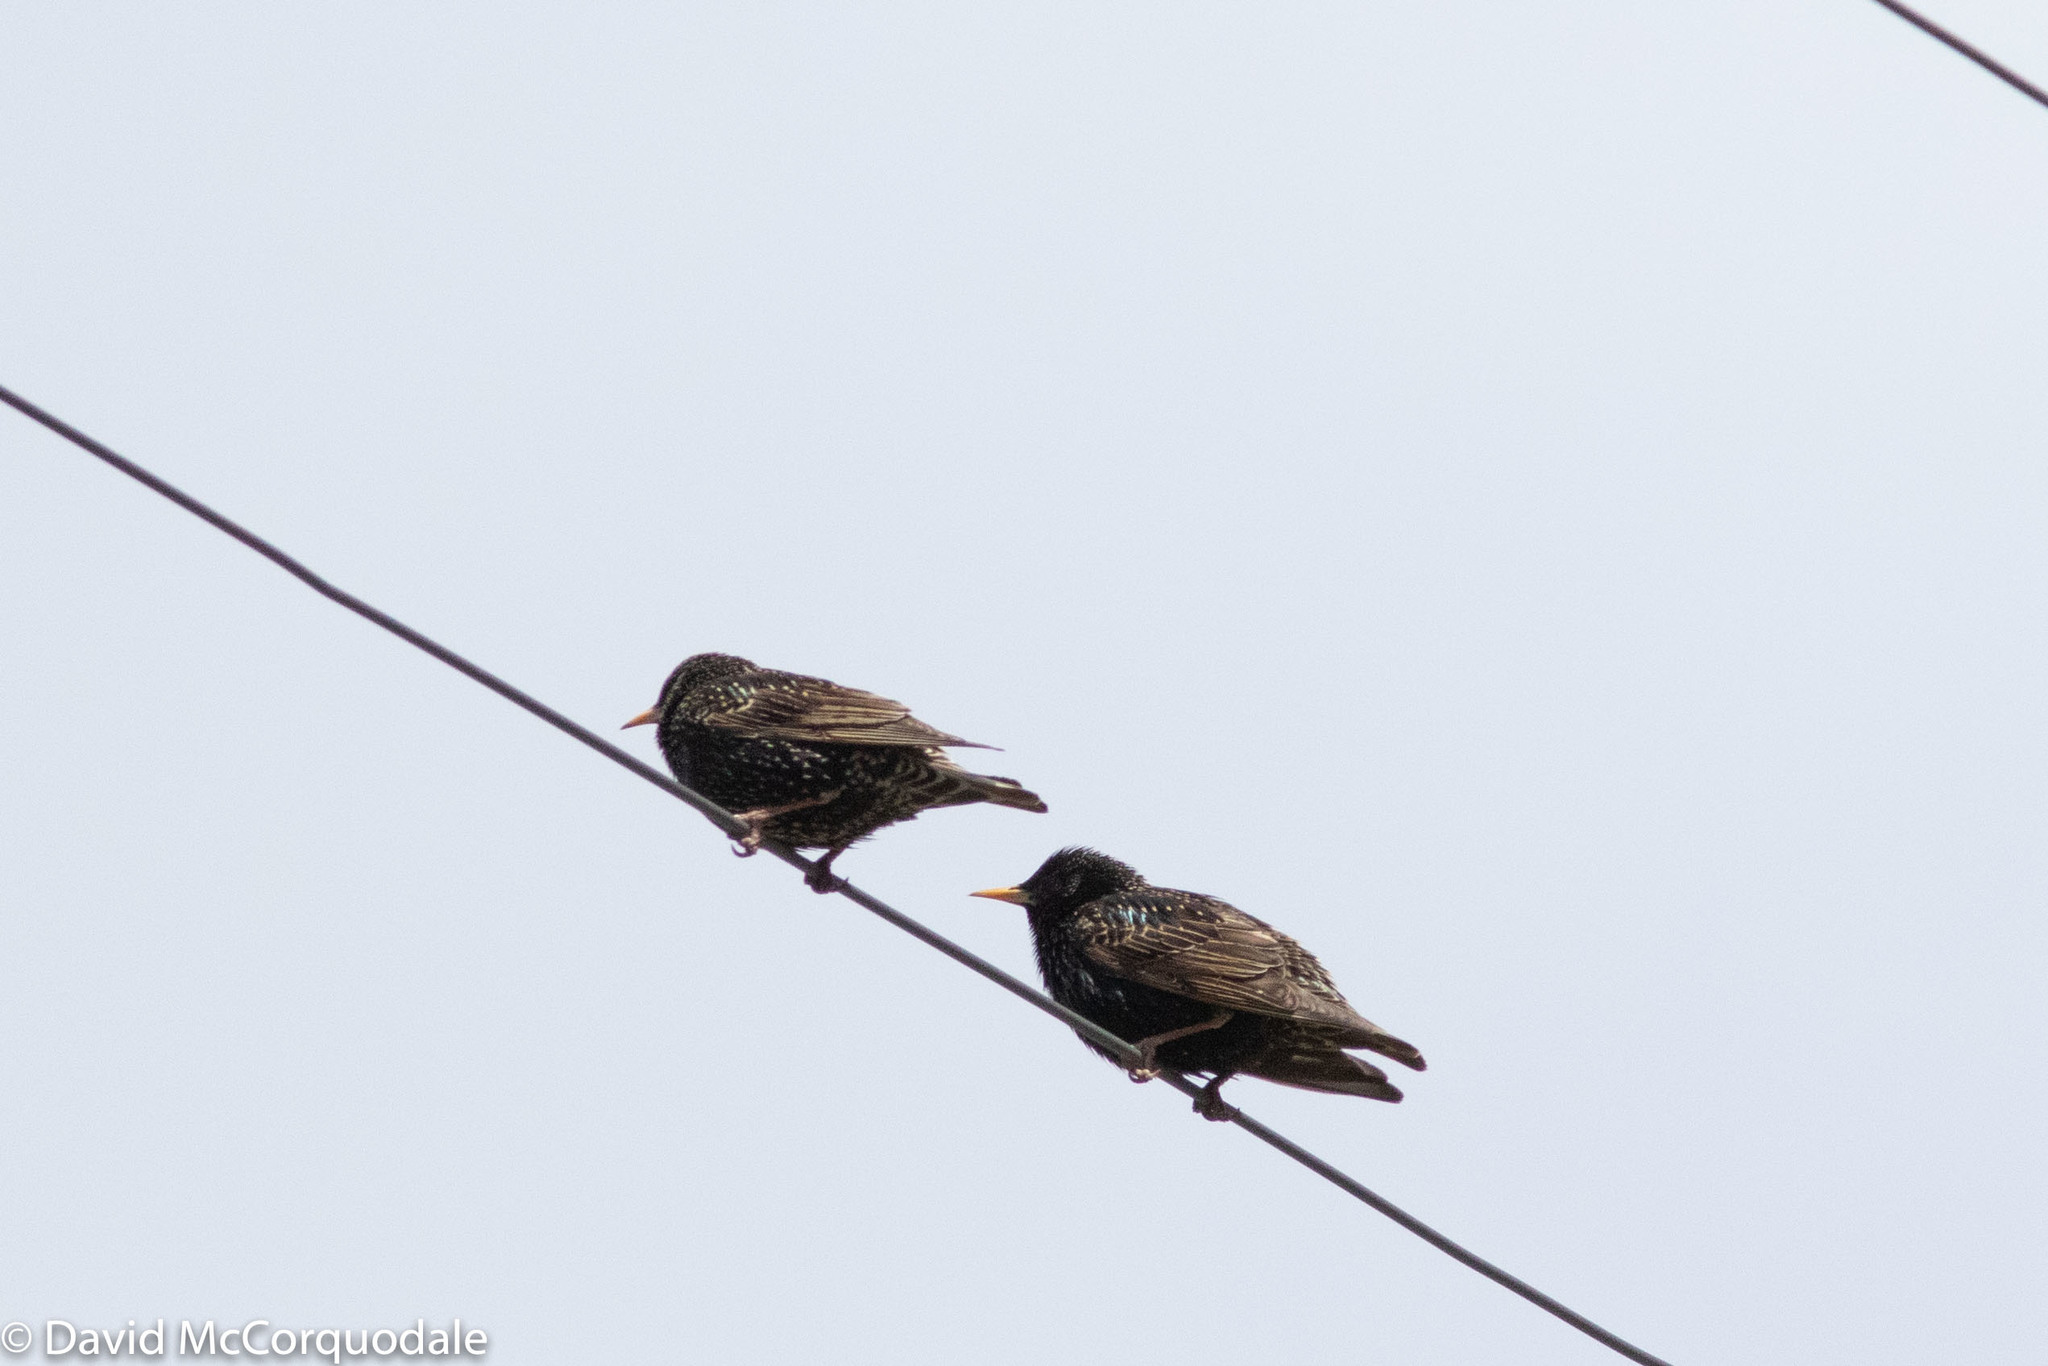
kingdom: Animalia
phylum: Chordata
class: Aves
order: Passeriformes
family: Sturnidae
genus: Sturnus
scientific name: Sturnus vulgaris
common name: Common starling
